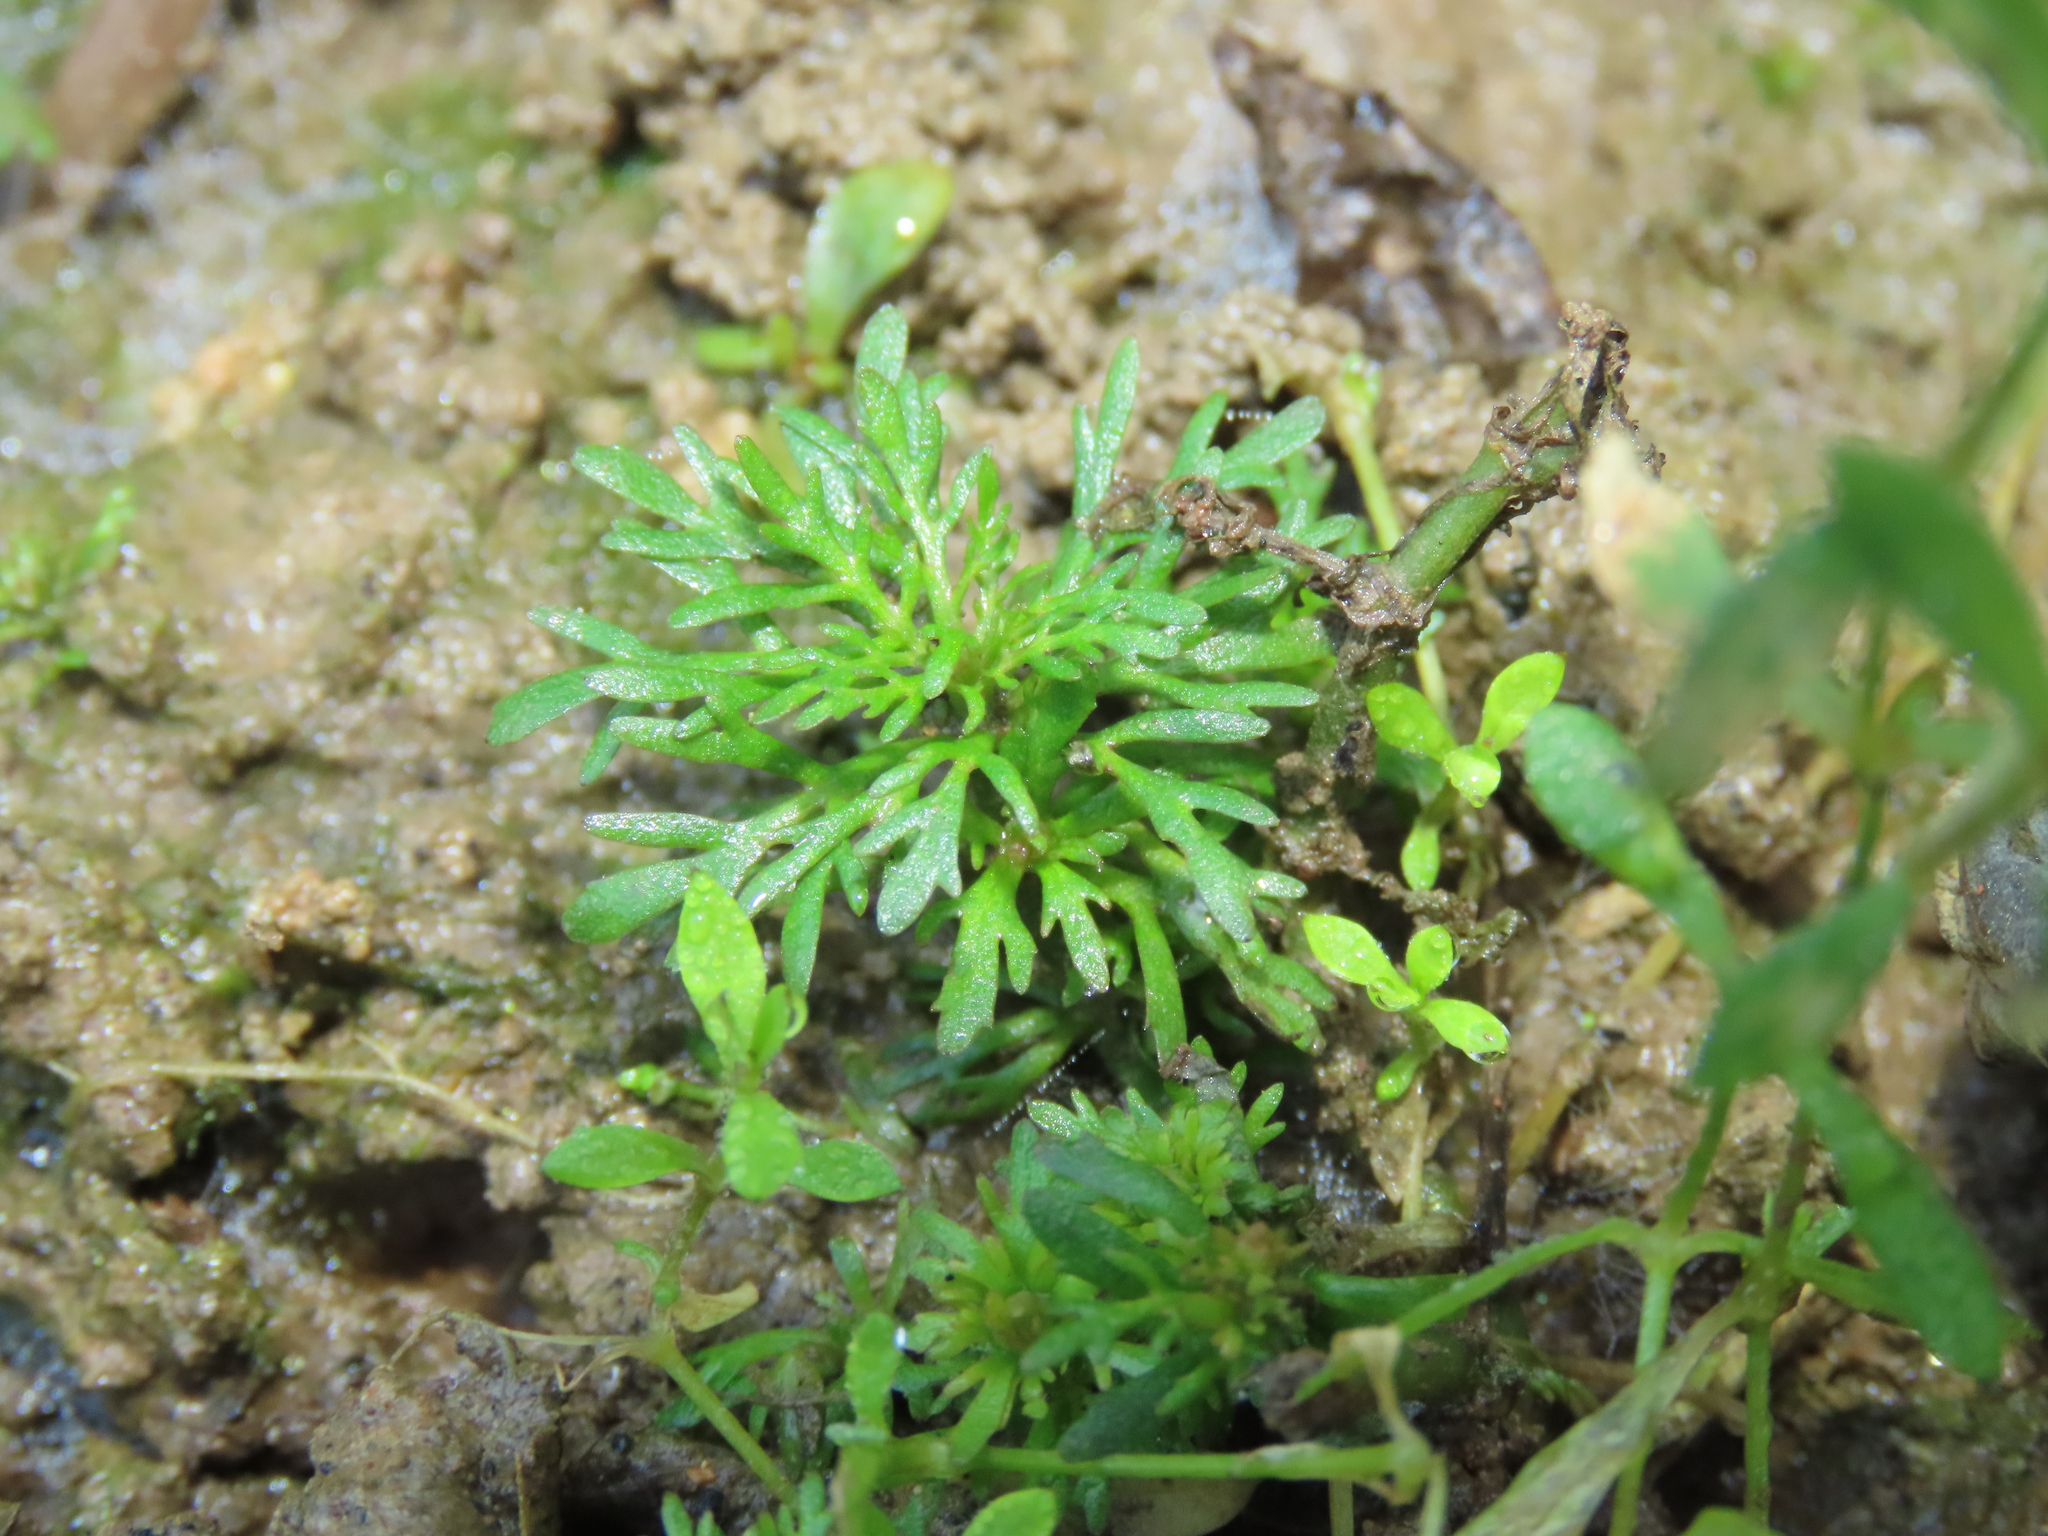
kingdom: Plantae
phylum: Tracheophyta
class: Magnoliopsida
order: Lamiales
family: Plantaginaceae
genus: Limnophila
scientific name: Limnophila sessiliflora
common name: Asian marshweed
